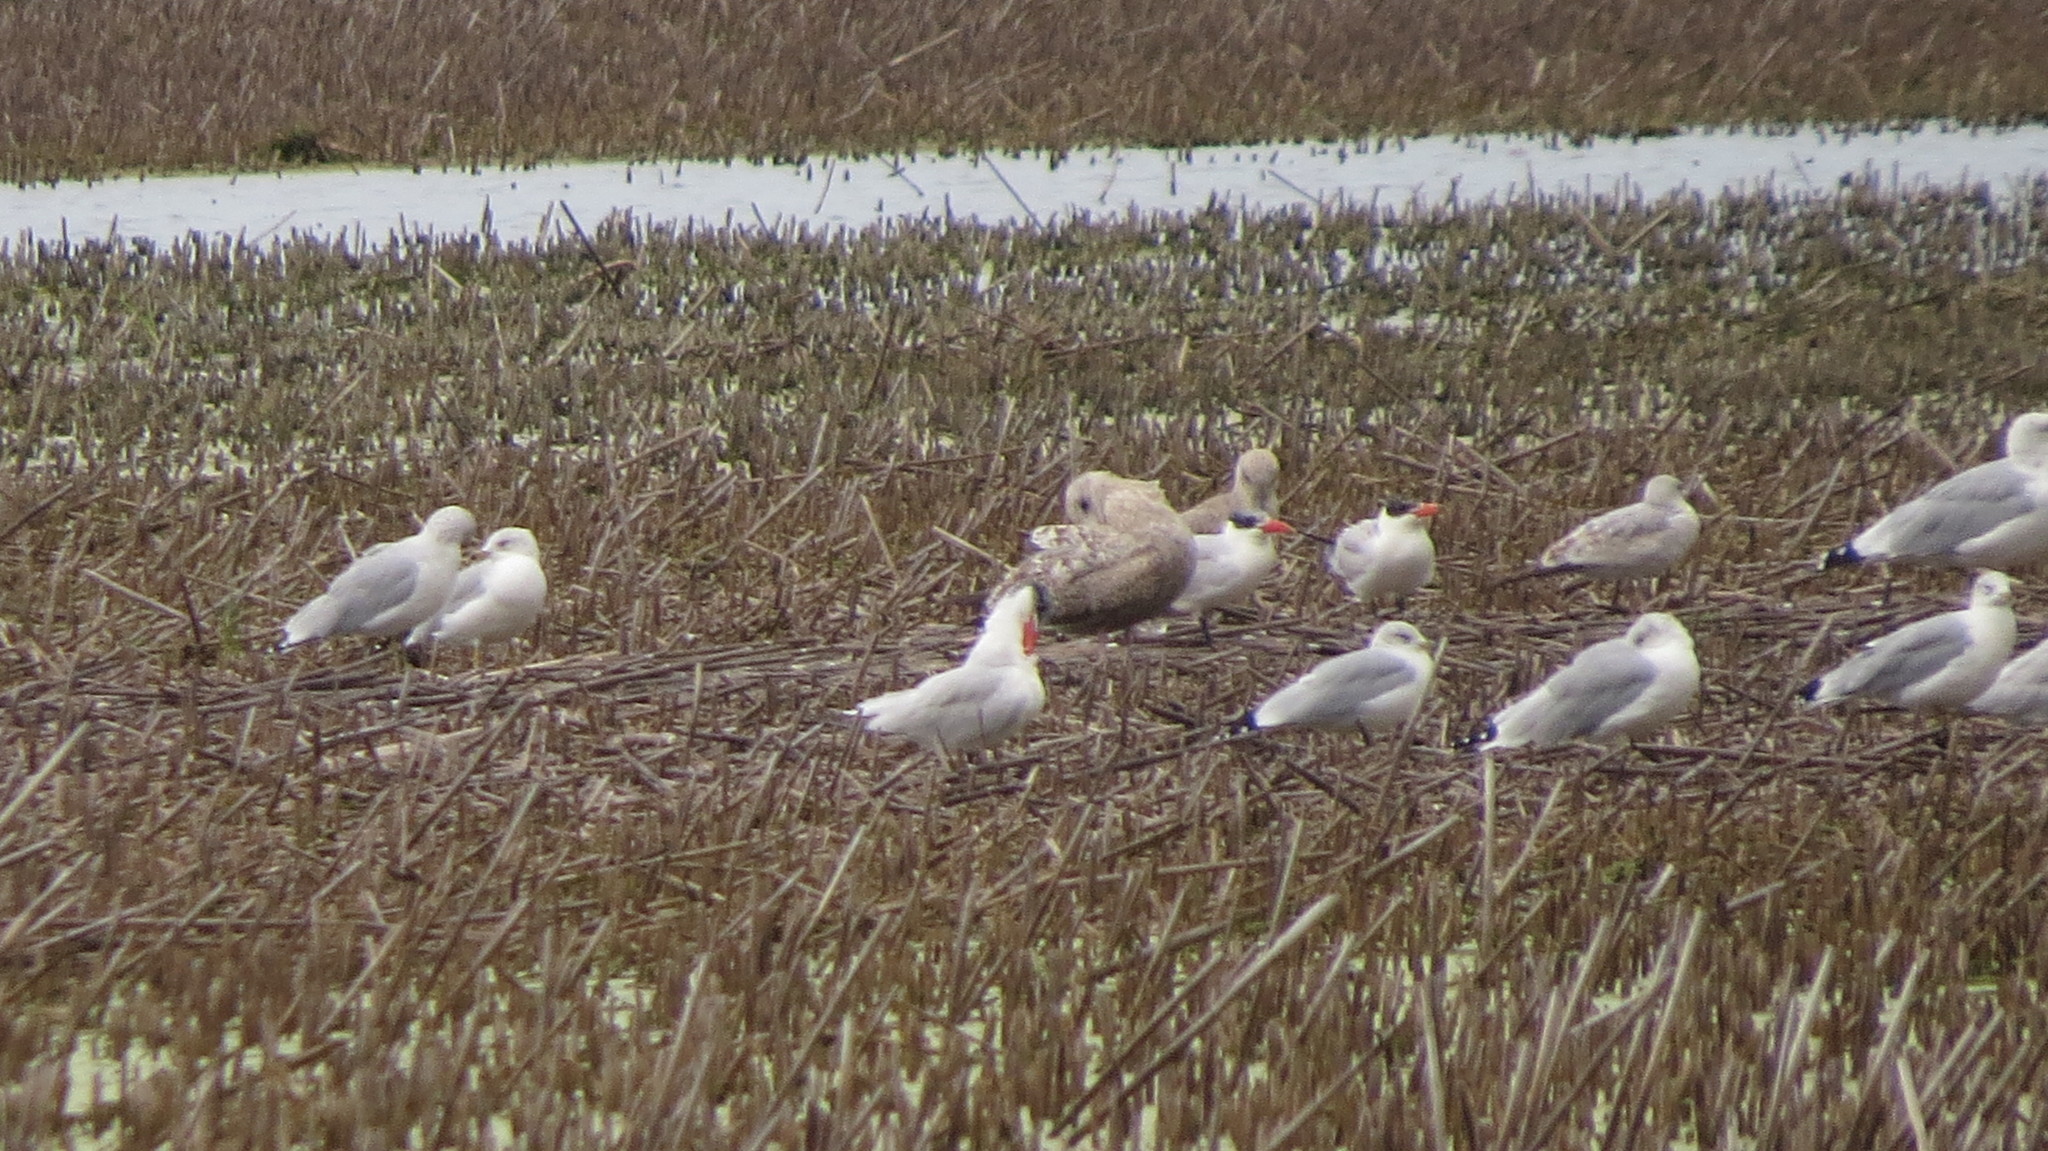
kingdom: Animalia
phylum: Chordata
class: Aves
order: Charadriiformes
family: Laridae
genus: Larus
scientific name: Larus delawarensis
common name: Ring-billed gull
